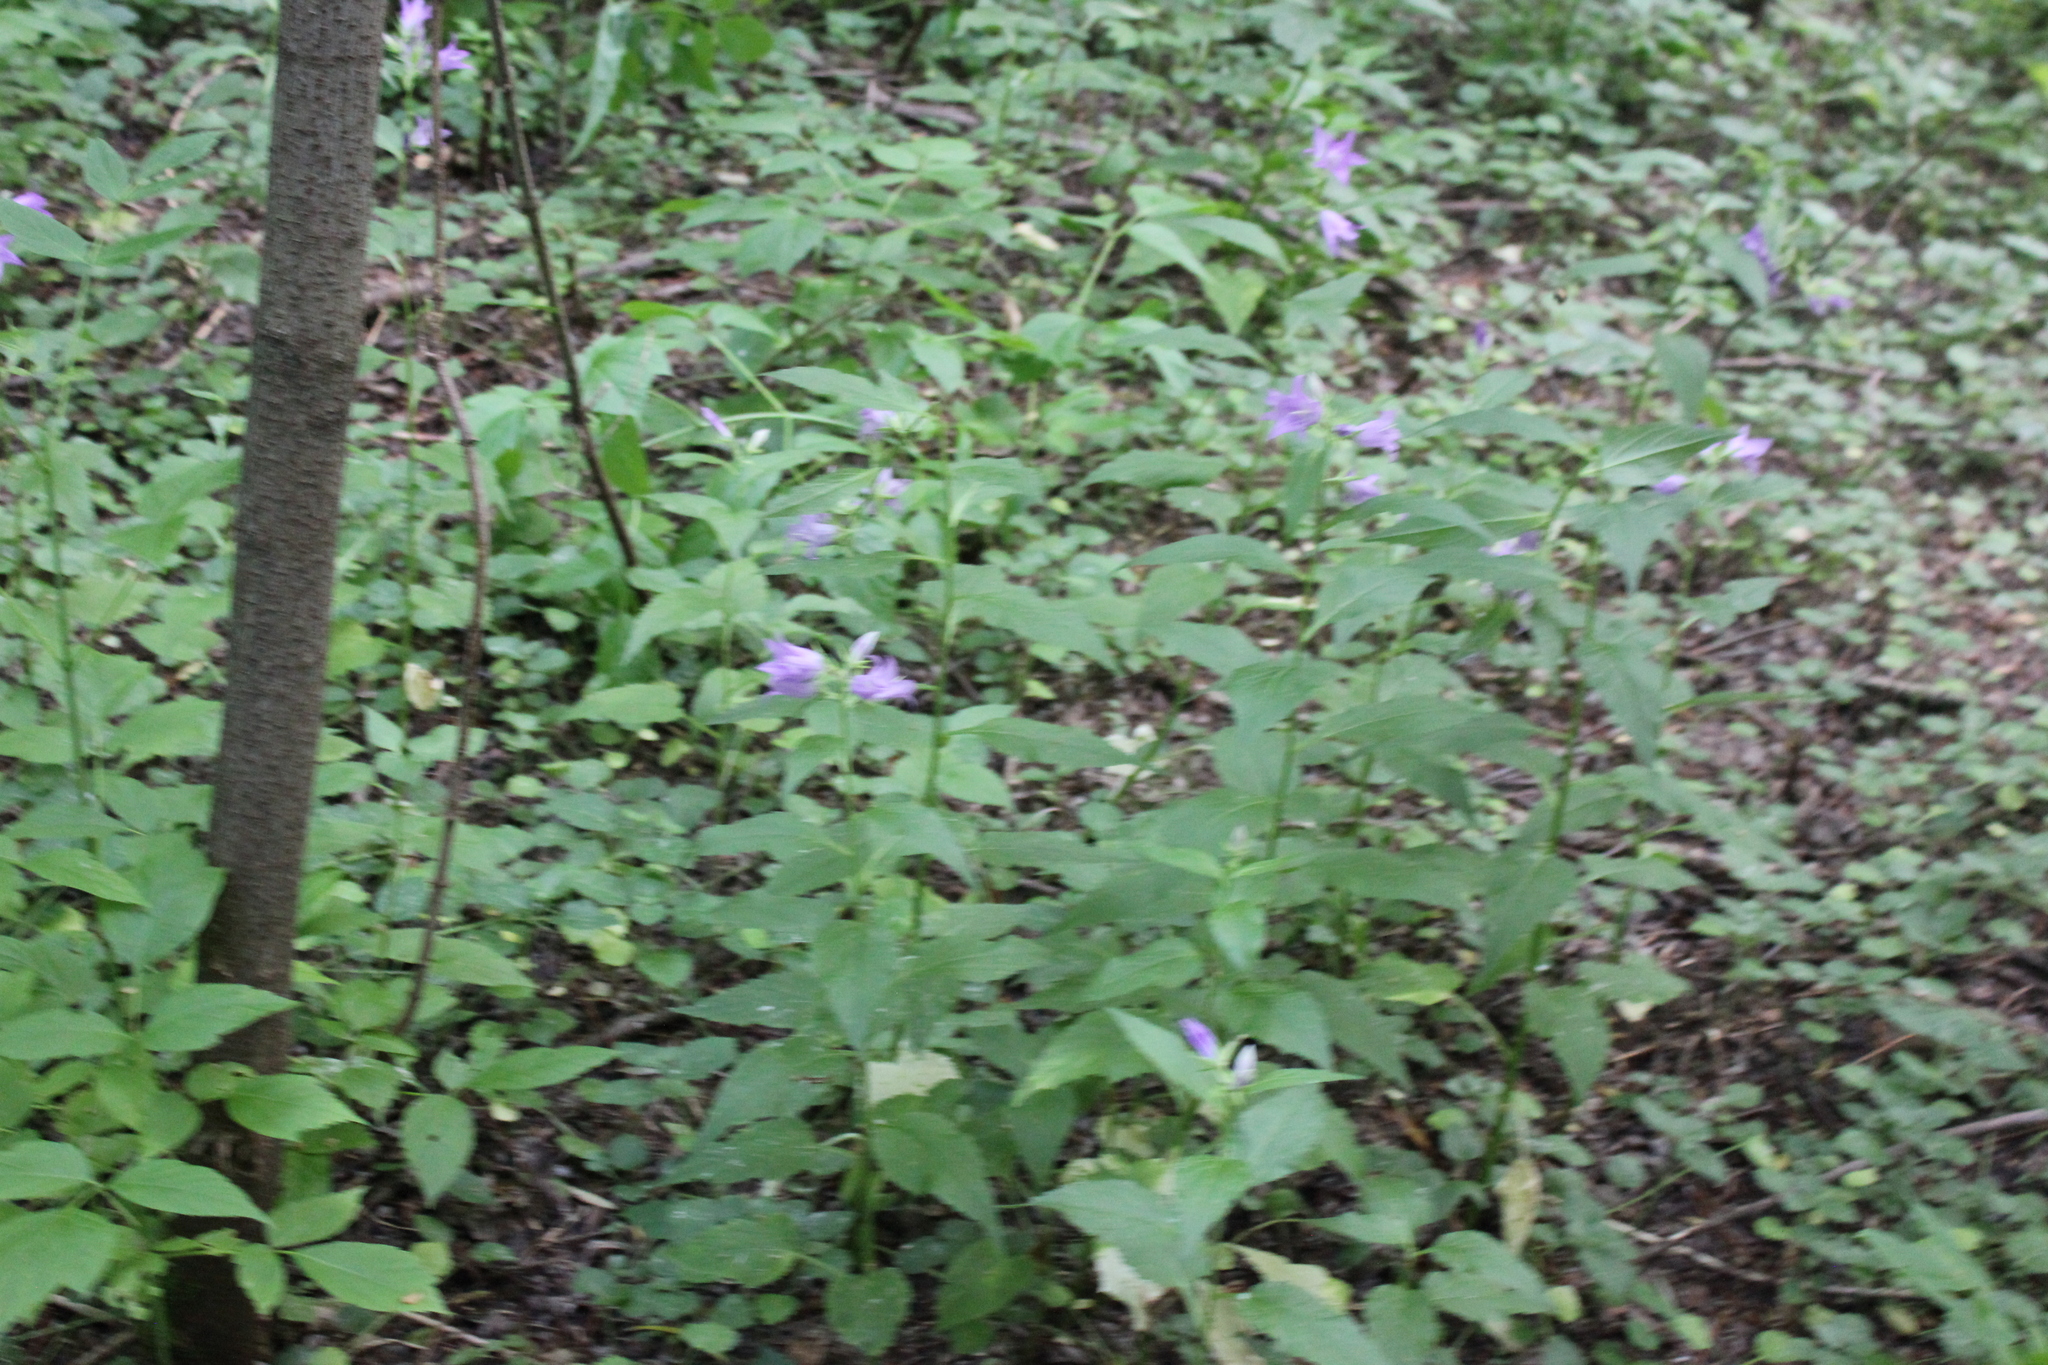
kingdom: Plantae
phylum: Tracheophyta
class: Magnoliopsida
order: Asterales
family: Campanulaceae
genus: Campanula
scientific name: Campanula latifolia
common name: Giant bellflower
